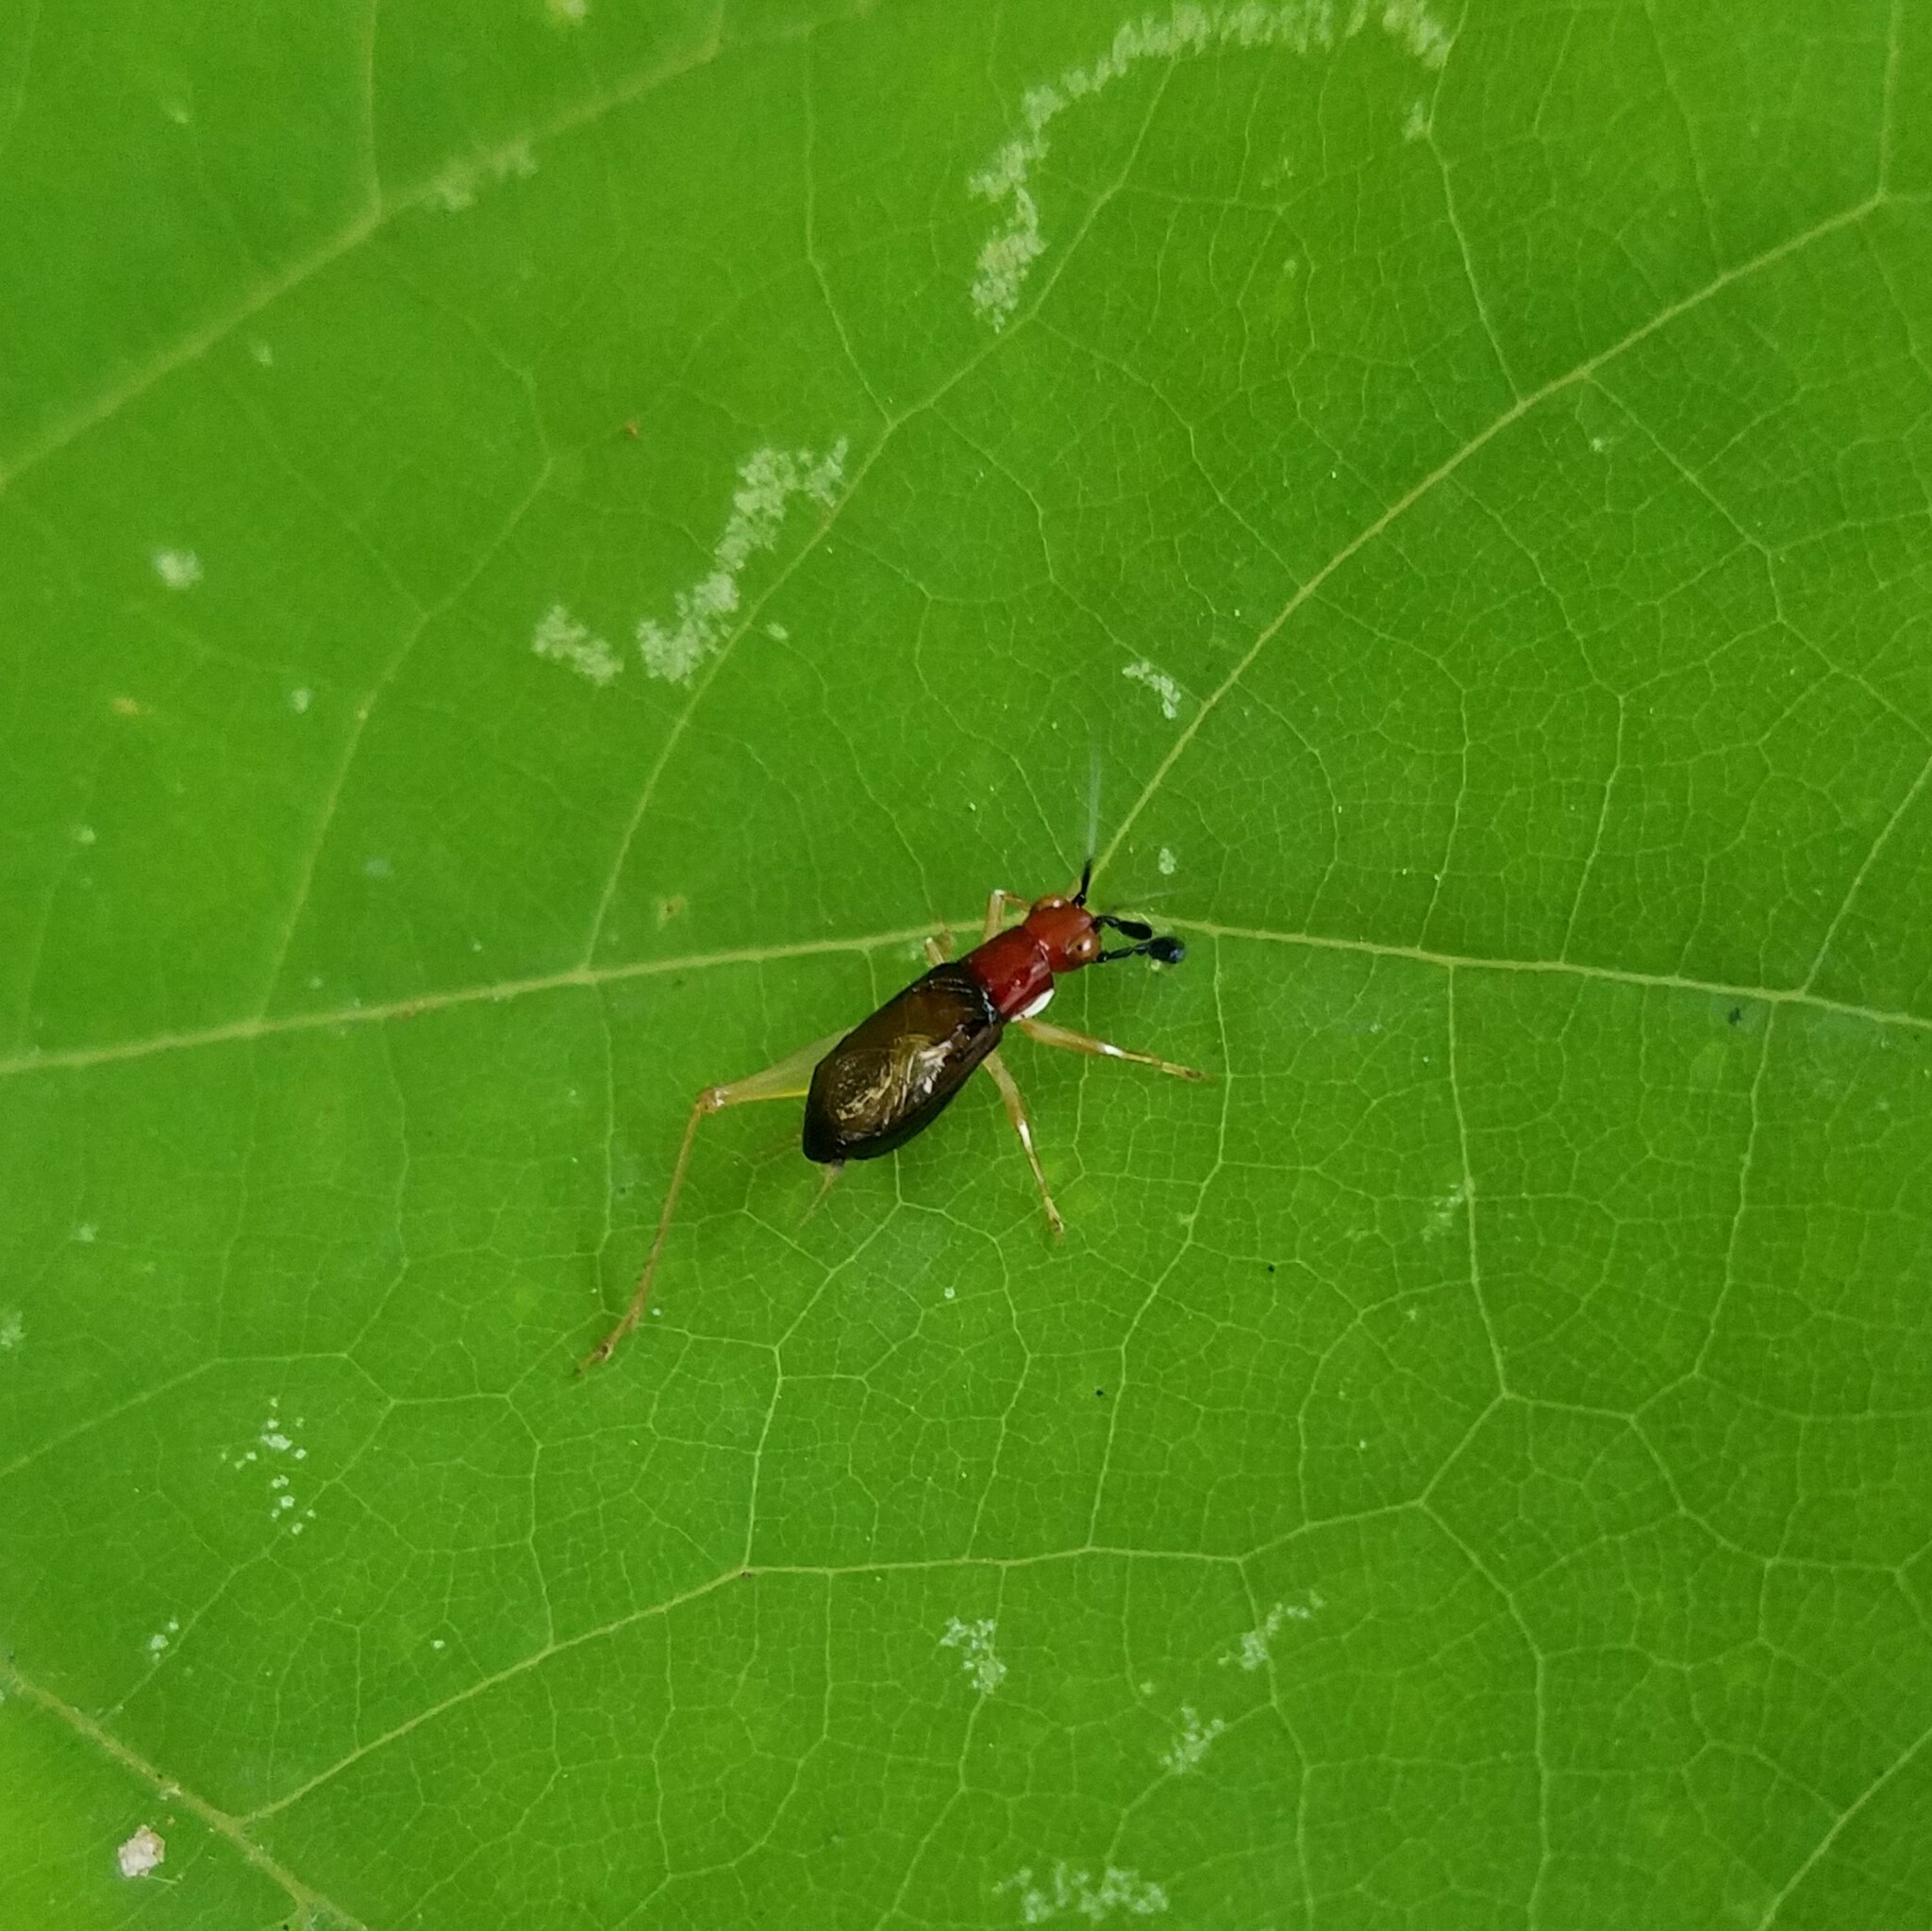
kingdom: Animalia
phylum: Arthropoda
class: Insecta
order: Orthoptera
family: Trigonidiidae
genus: Phyllopalpus
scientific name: Phyllopalpus pulchellus
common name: Handsome trig
